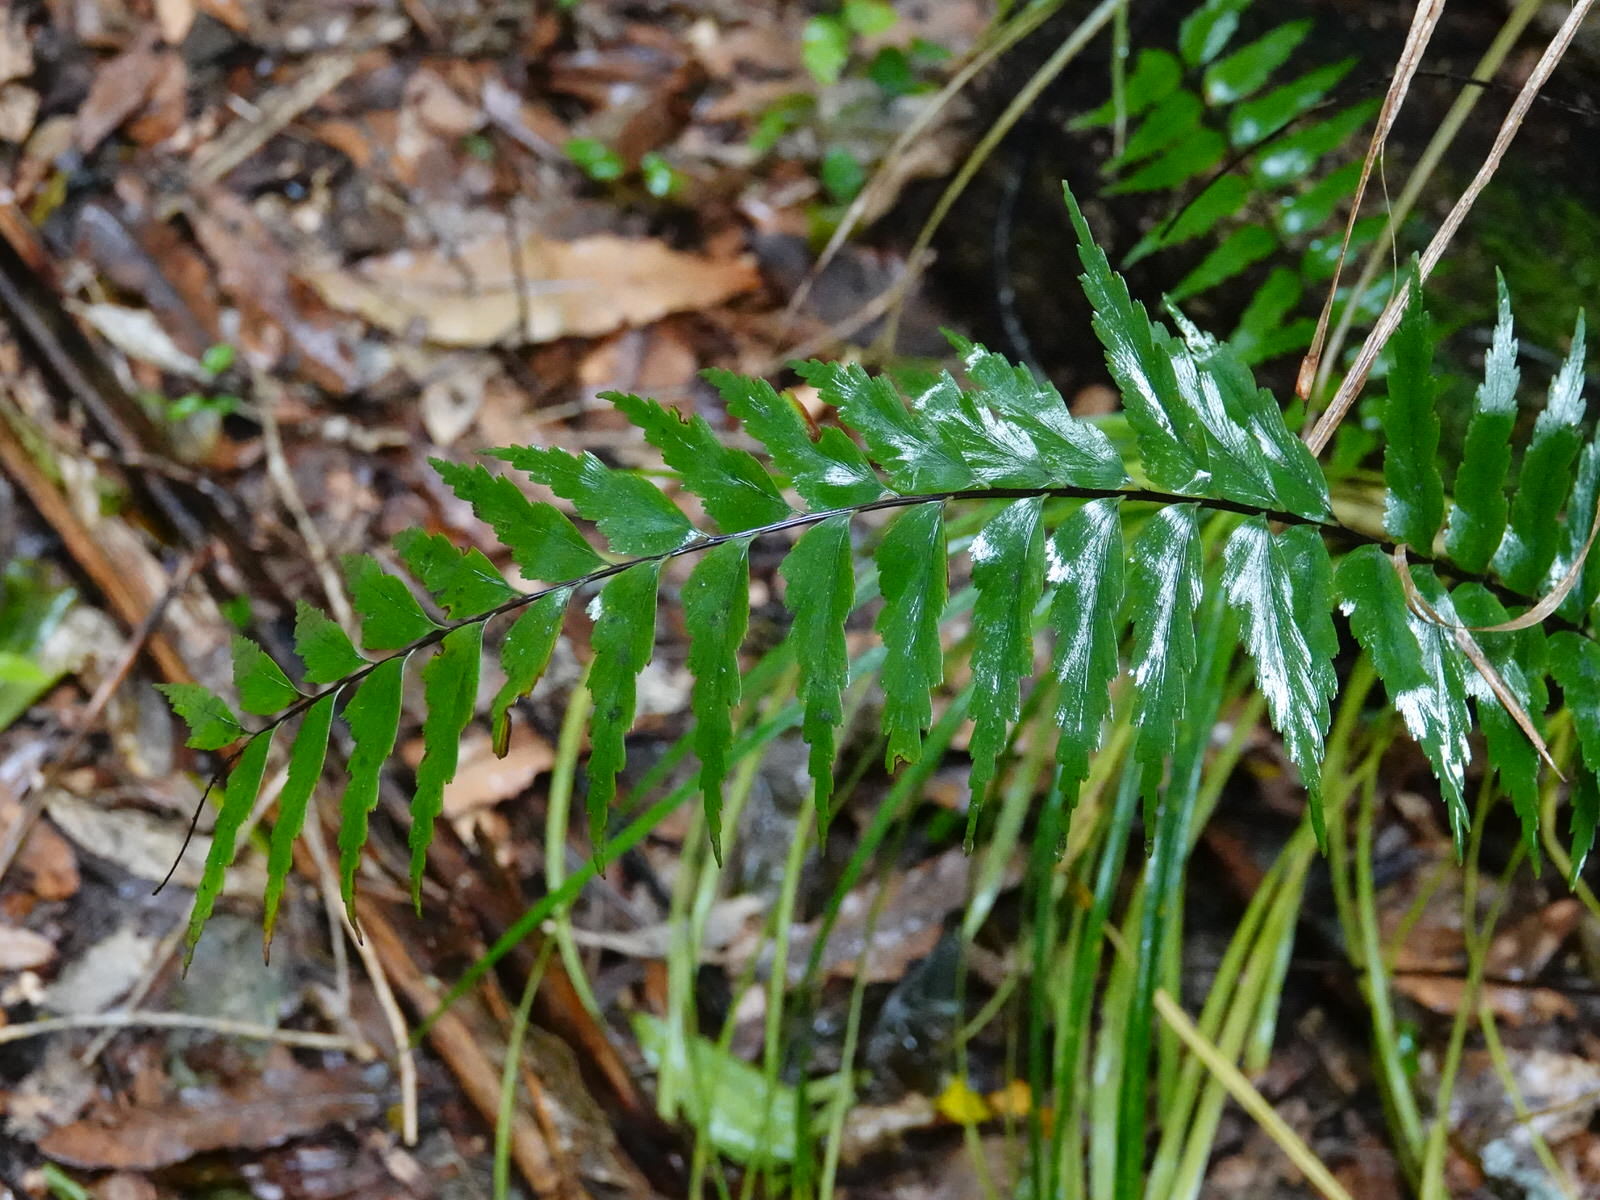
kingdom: Plantae
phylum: Tracheophyta
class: Polypodiopsida
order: Polypodiales
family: Aspleniaceae
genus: Asplenium
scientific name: Asplenium polyodon
